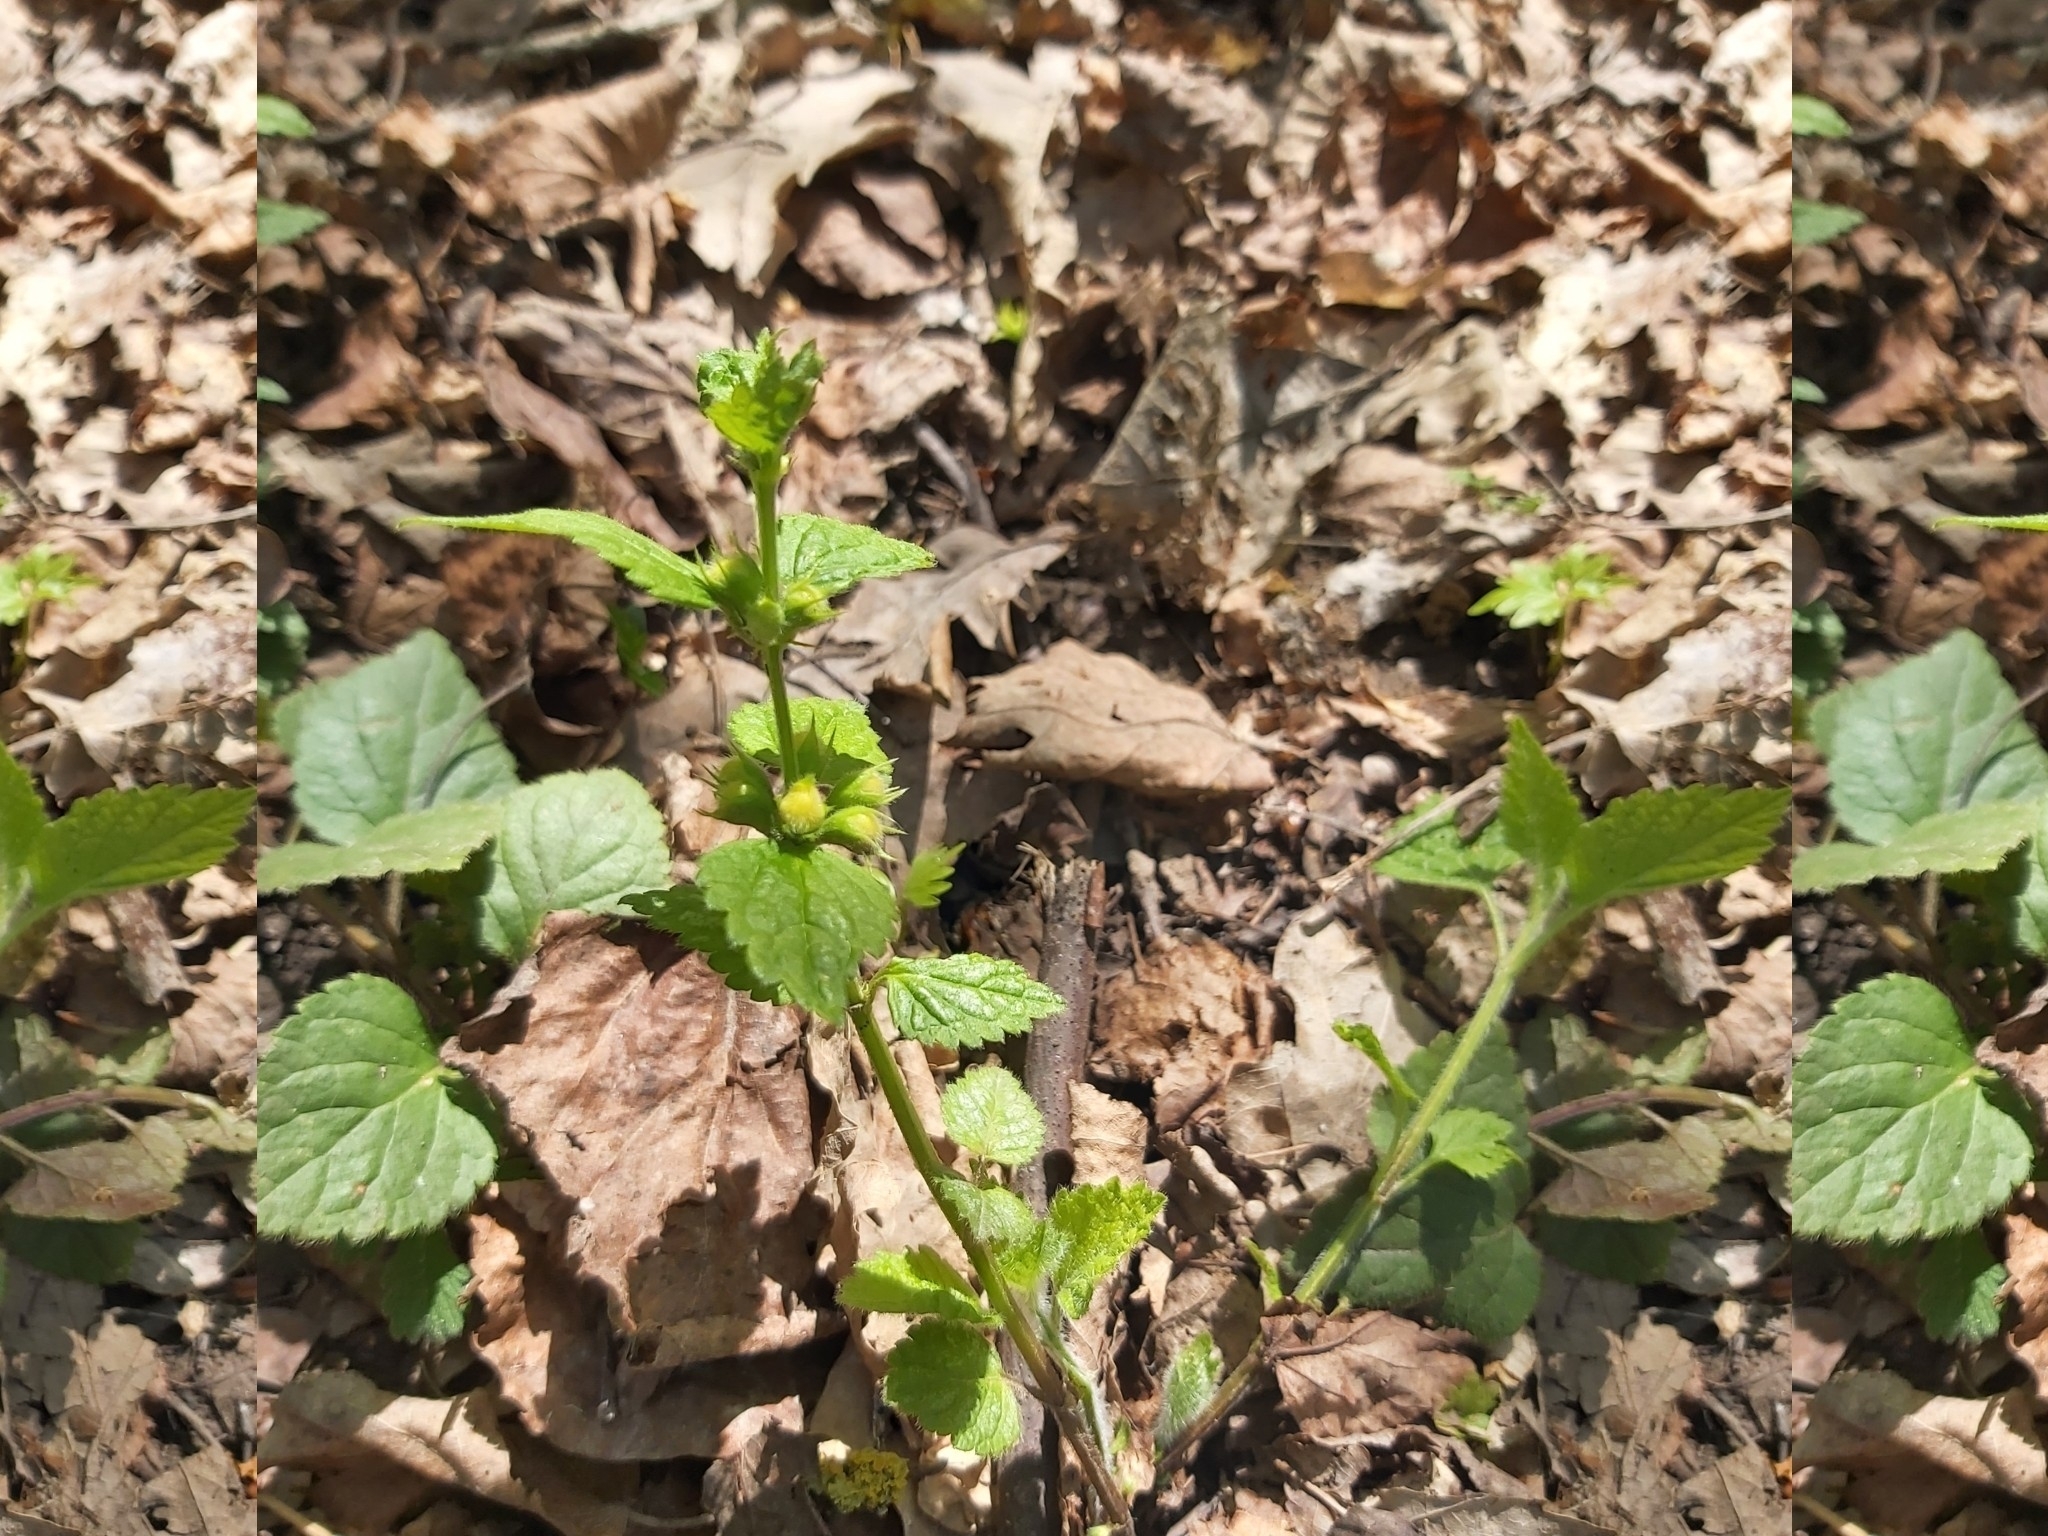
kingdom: Plantae
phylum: Tracheophyta
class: Magnoliopsida
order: Lamiales
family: Lamiaceae
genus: Lamium
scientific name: Lamium galeobdolon
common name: Yellow archangel
